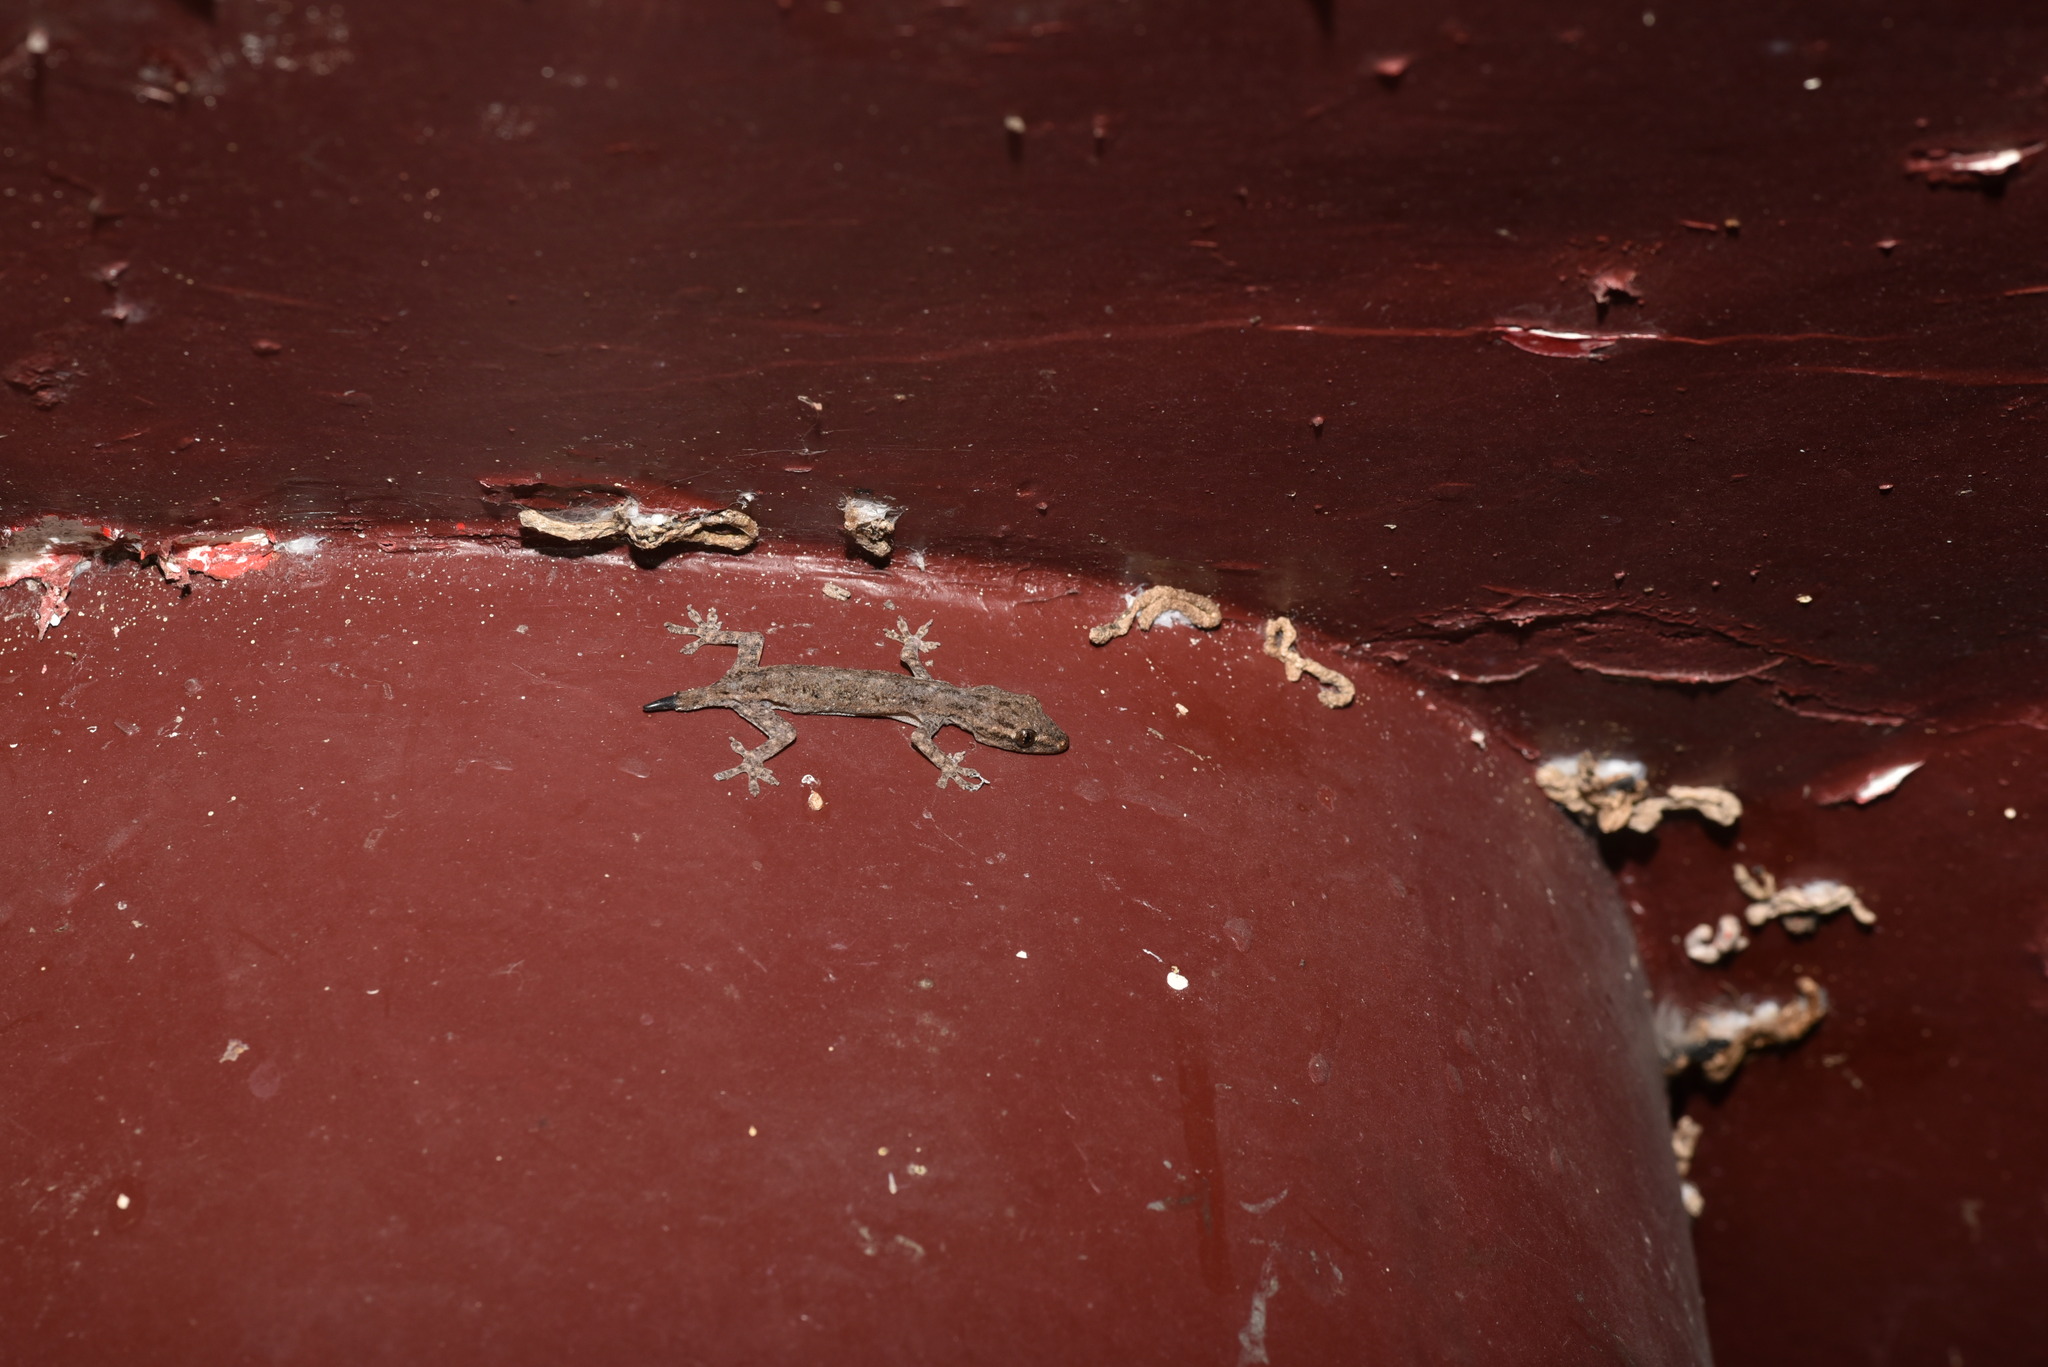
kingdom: Animalia
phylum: Chordata
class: Squamata
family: Gekkonidae
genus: Hemidactylus
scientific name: Hemidactylus frenatus
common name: Common house gecko
